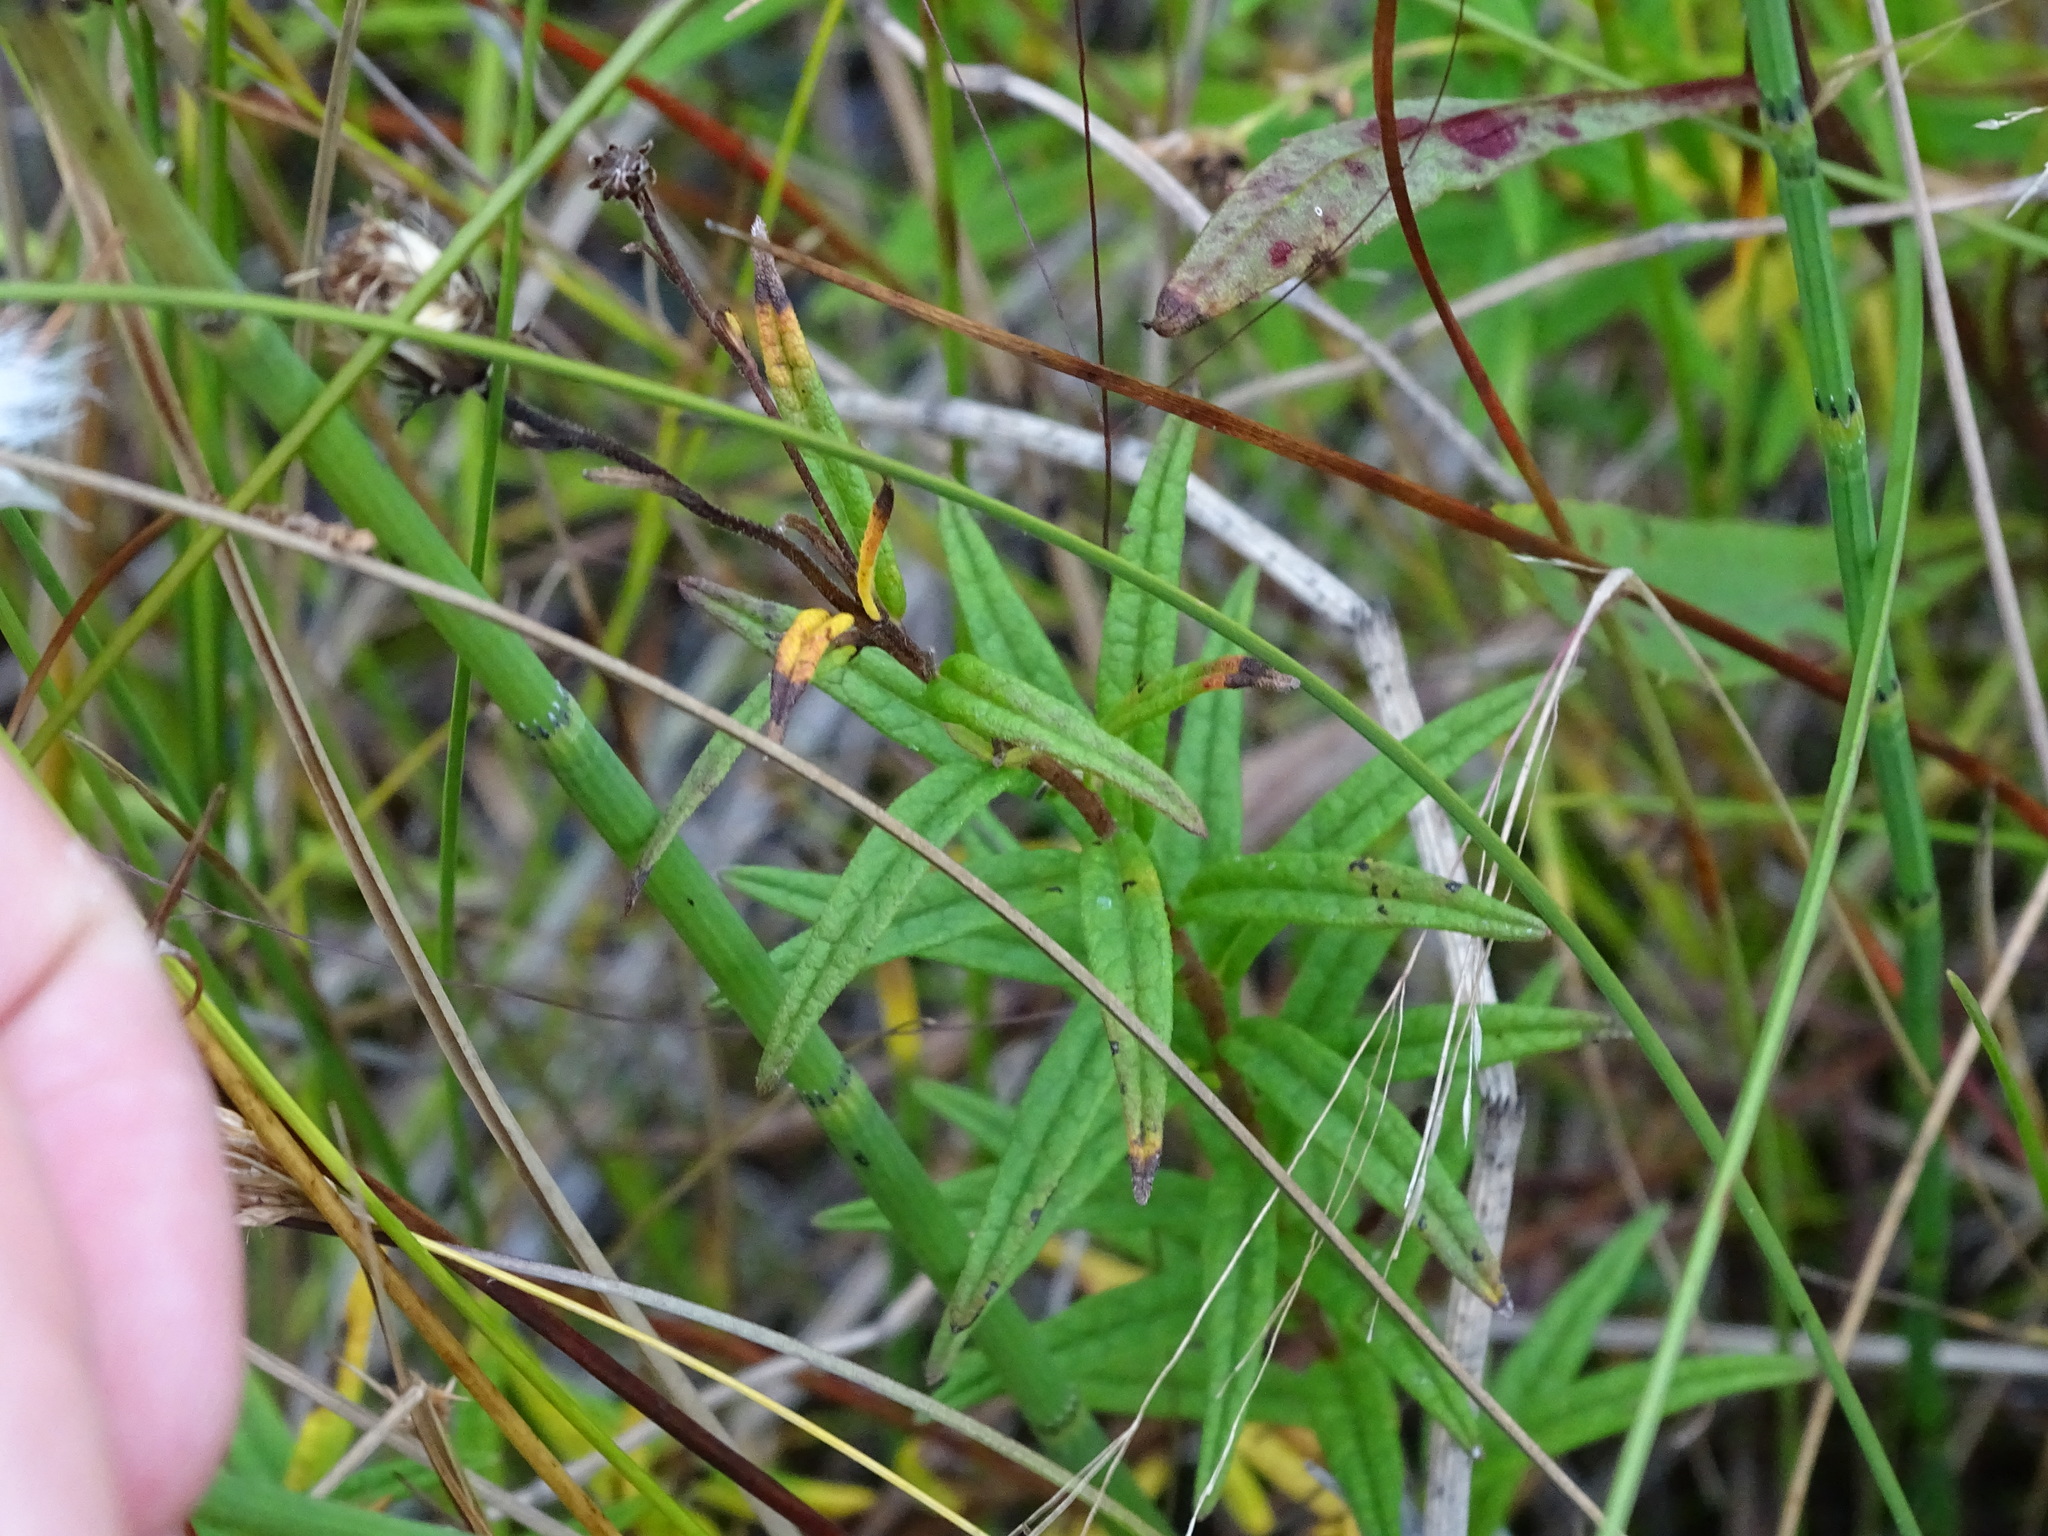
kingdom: Plantae
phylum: Tracheophyta
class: Magnoliopsida
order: Asterales
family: Asteraceae
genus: Oclemena
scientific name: Oclemena nemoralis
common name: Bog aster
